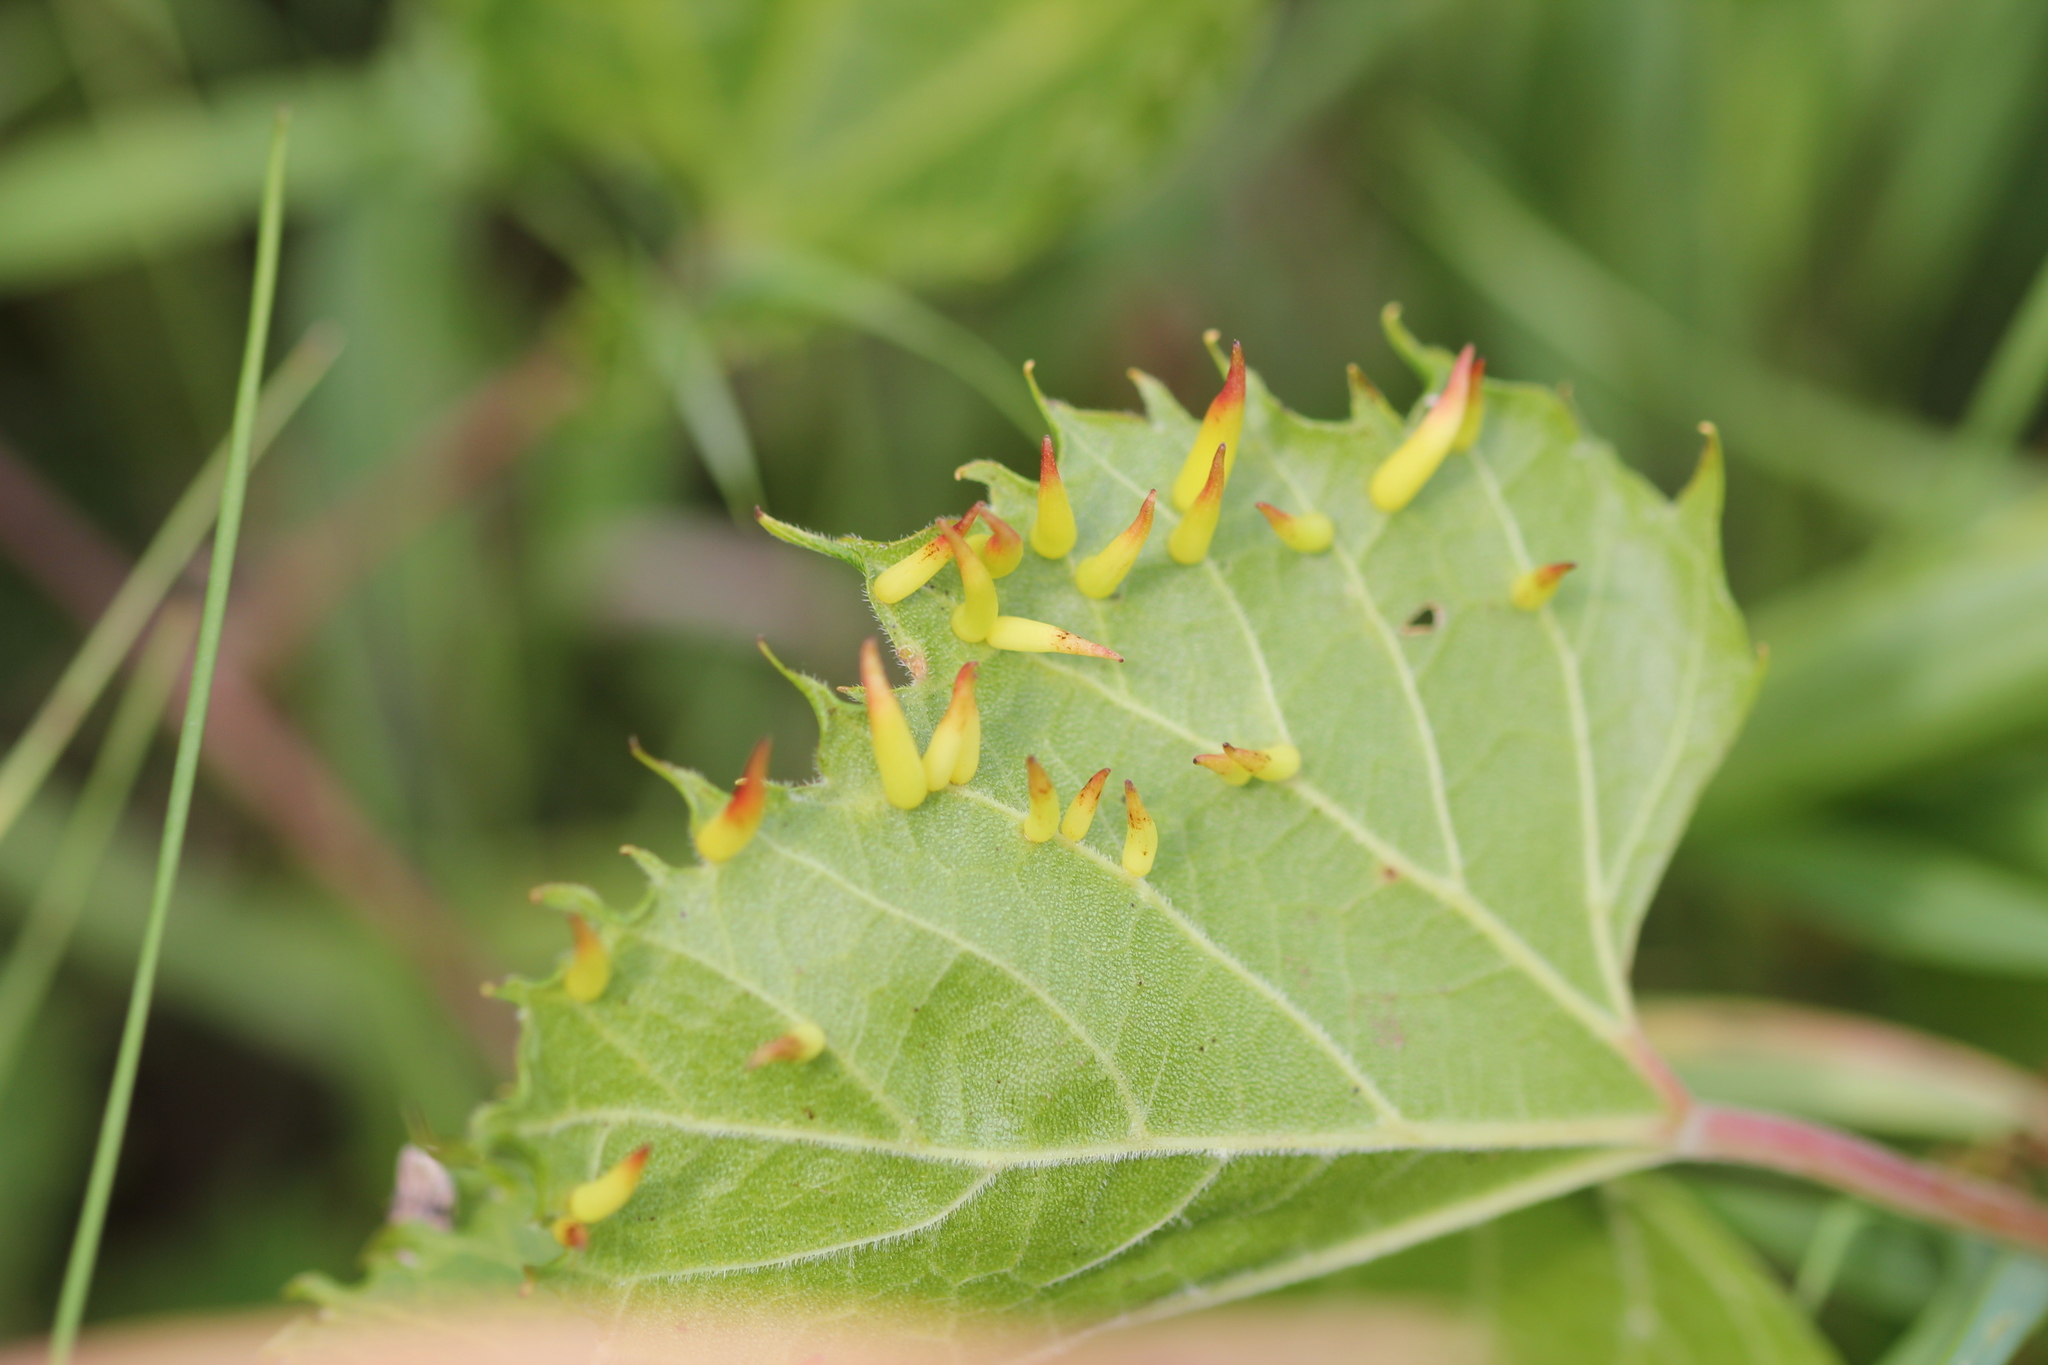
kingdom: Animalia
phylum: Arthropoda
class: Insecta
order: Diptera
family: Cecidomyiidae
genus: Ampelomyia
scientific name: Ampelomyia viticola
